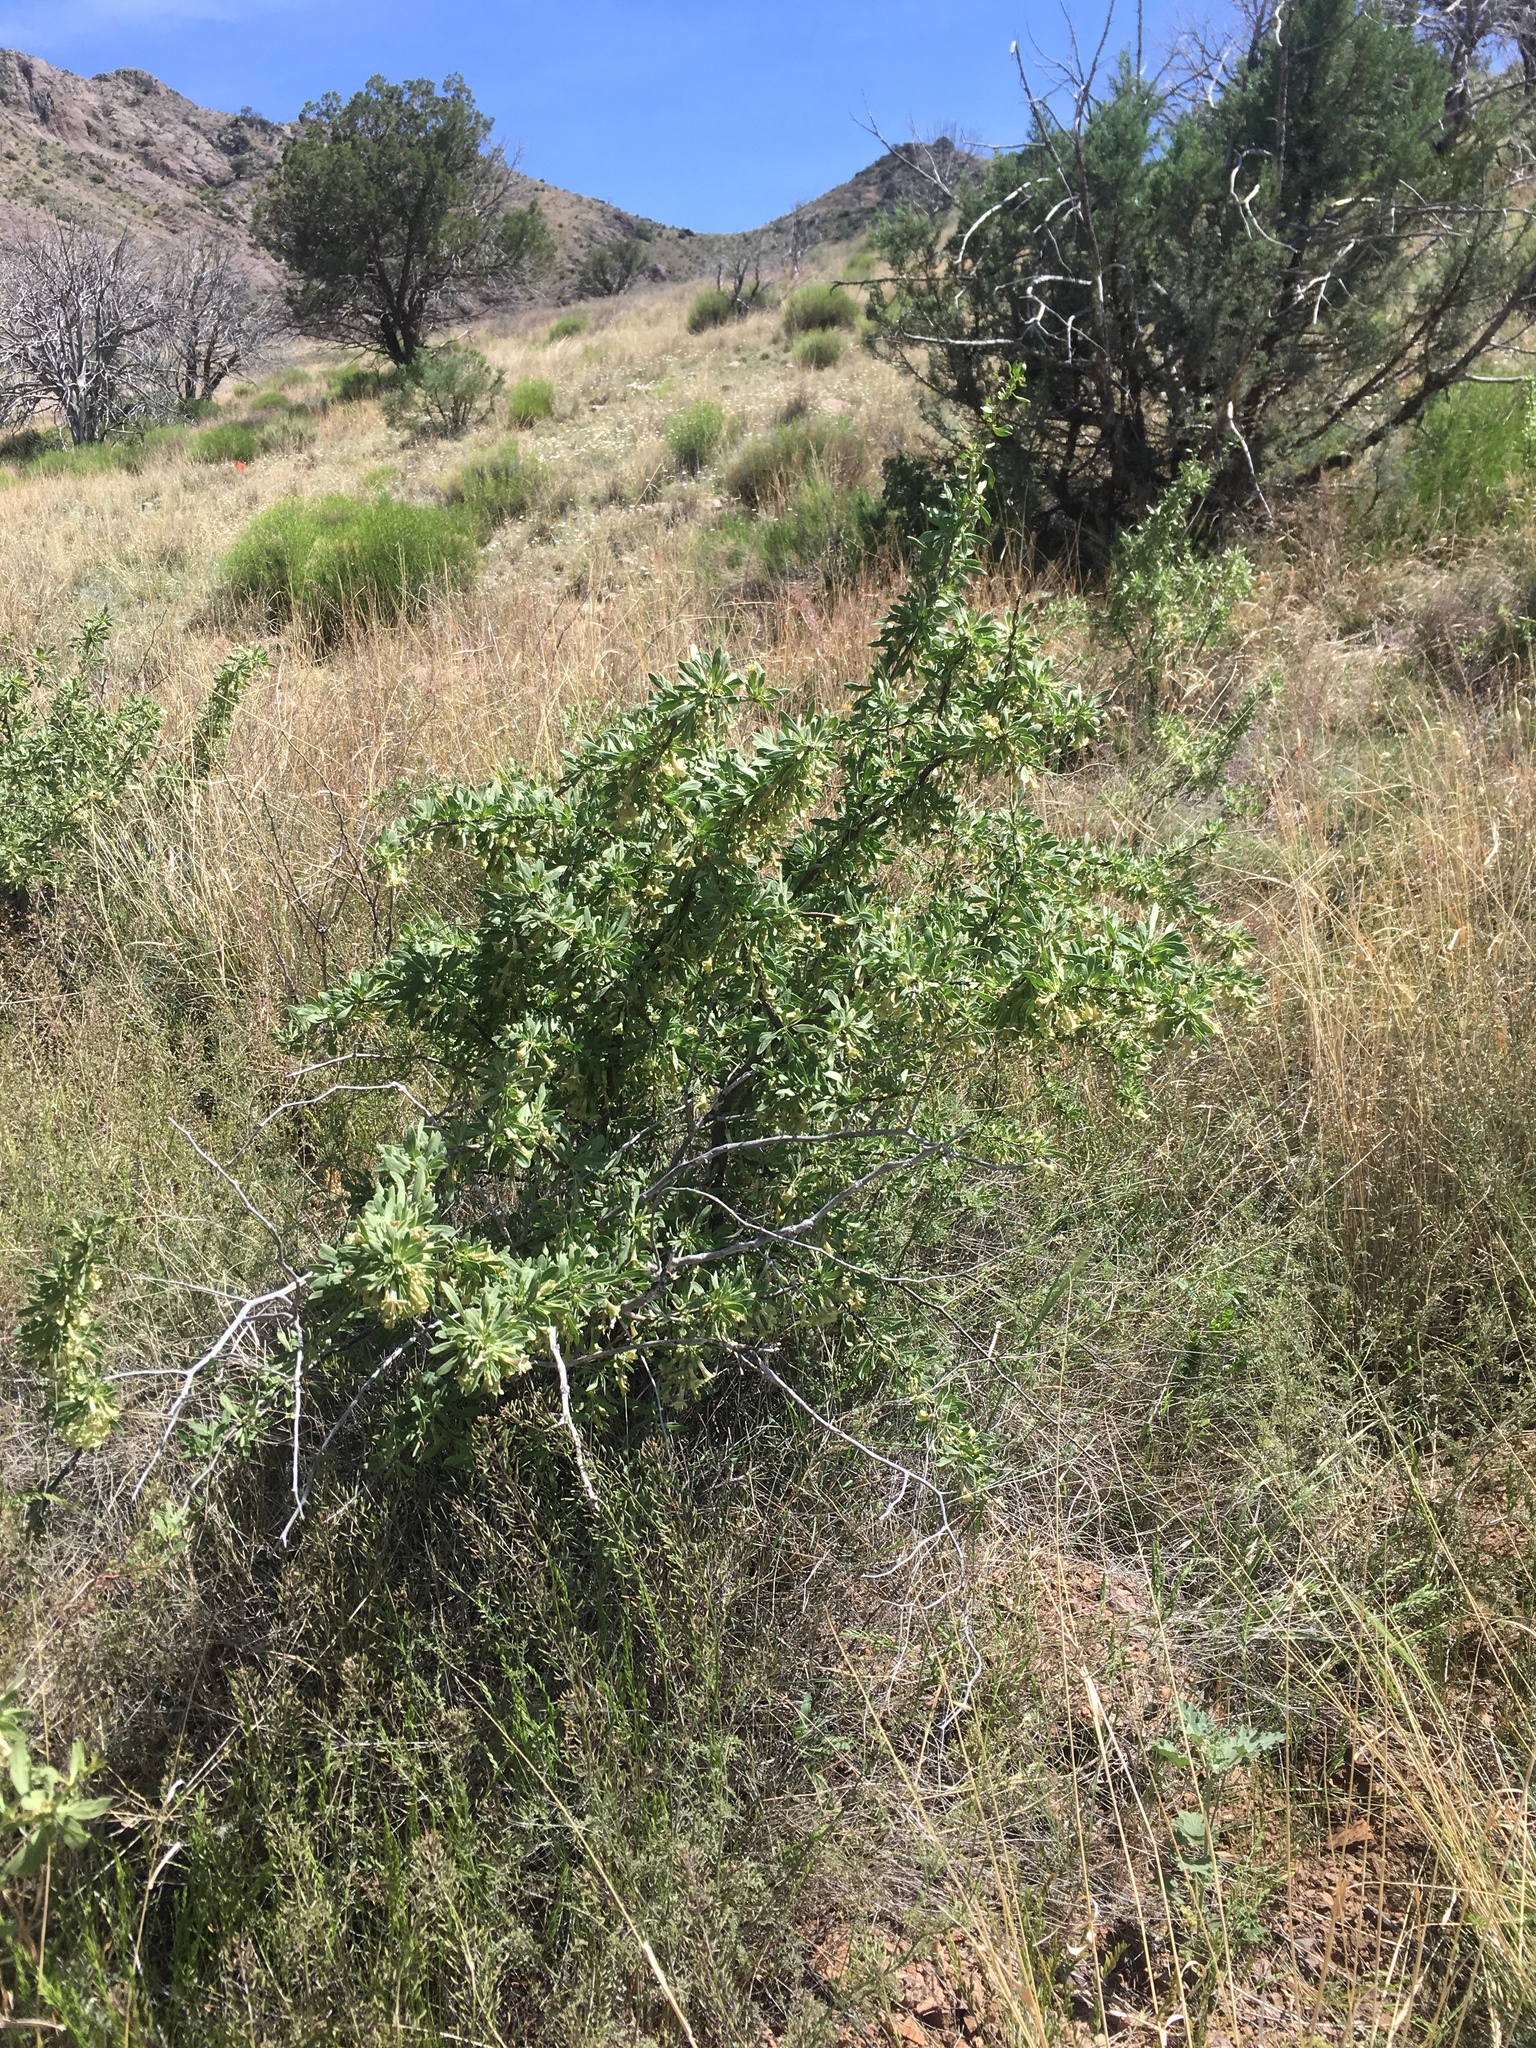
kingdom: Plantae
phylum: Tracheophyta
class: Magnoliopsida
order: Solanales
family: Solanaceae
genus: Lycium
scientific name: Lycium pallidum
